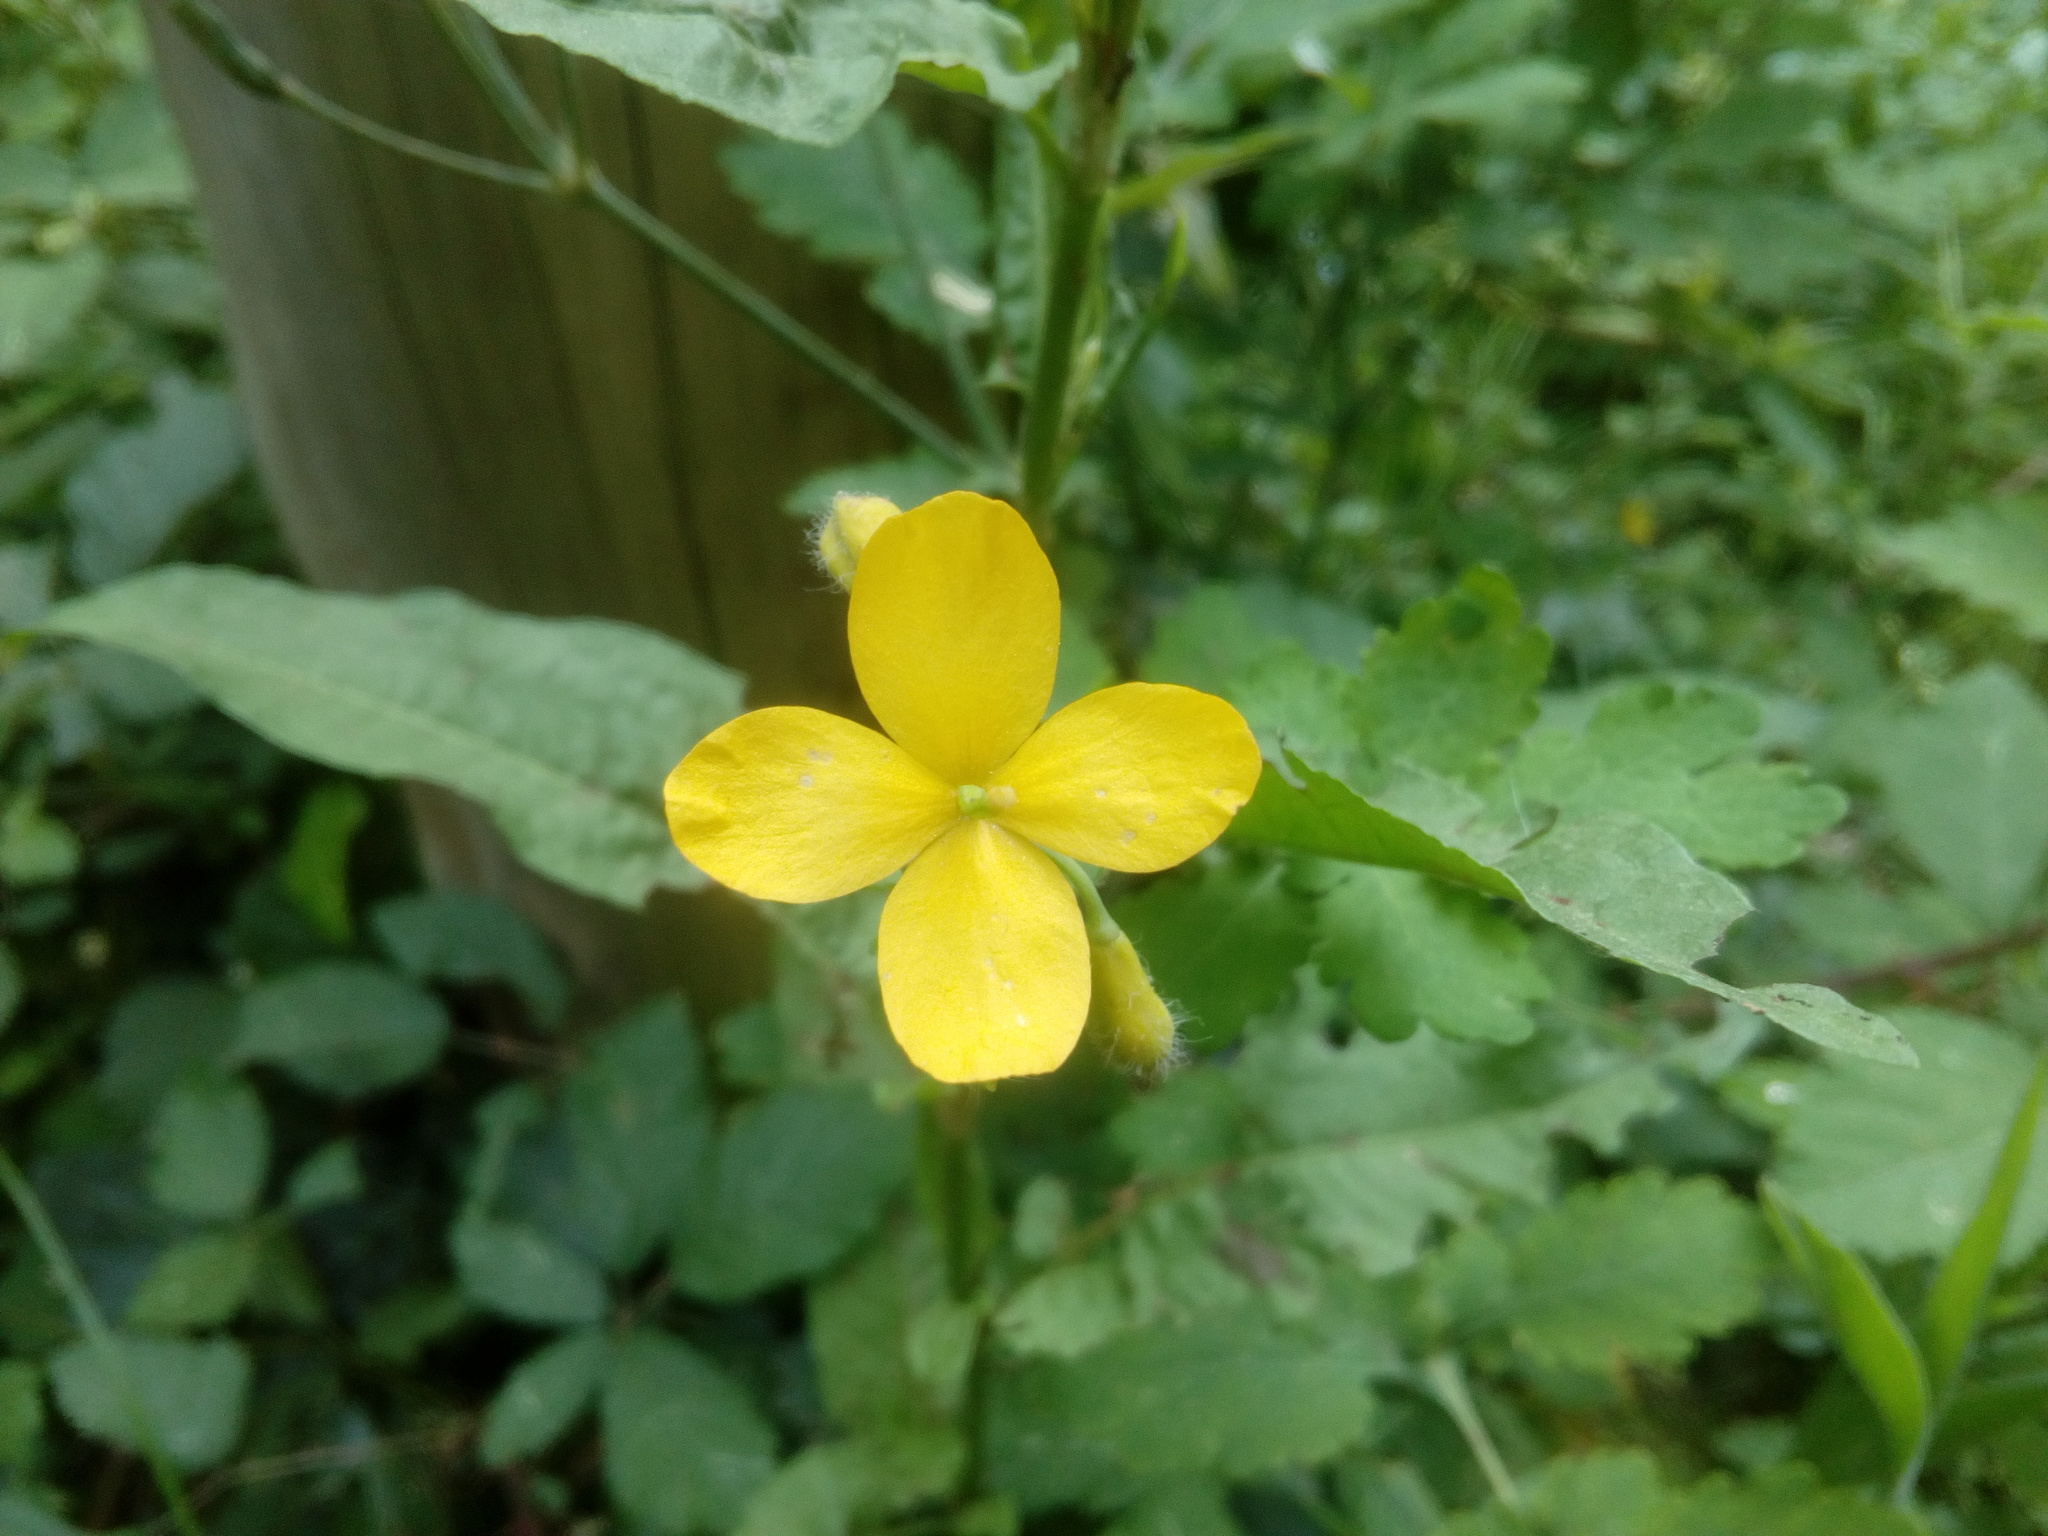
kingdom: Plantae
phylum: Tracheophyta
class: Magnoliopsida
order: Ranunculales
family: Papaveraceae
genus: Chelidonium
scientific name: Chelidonium majus
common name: Greater celandine
